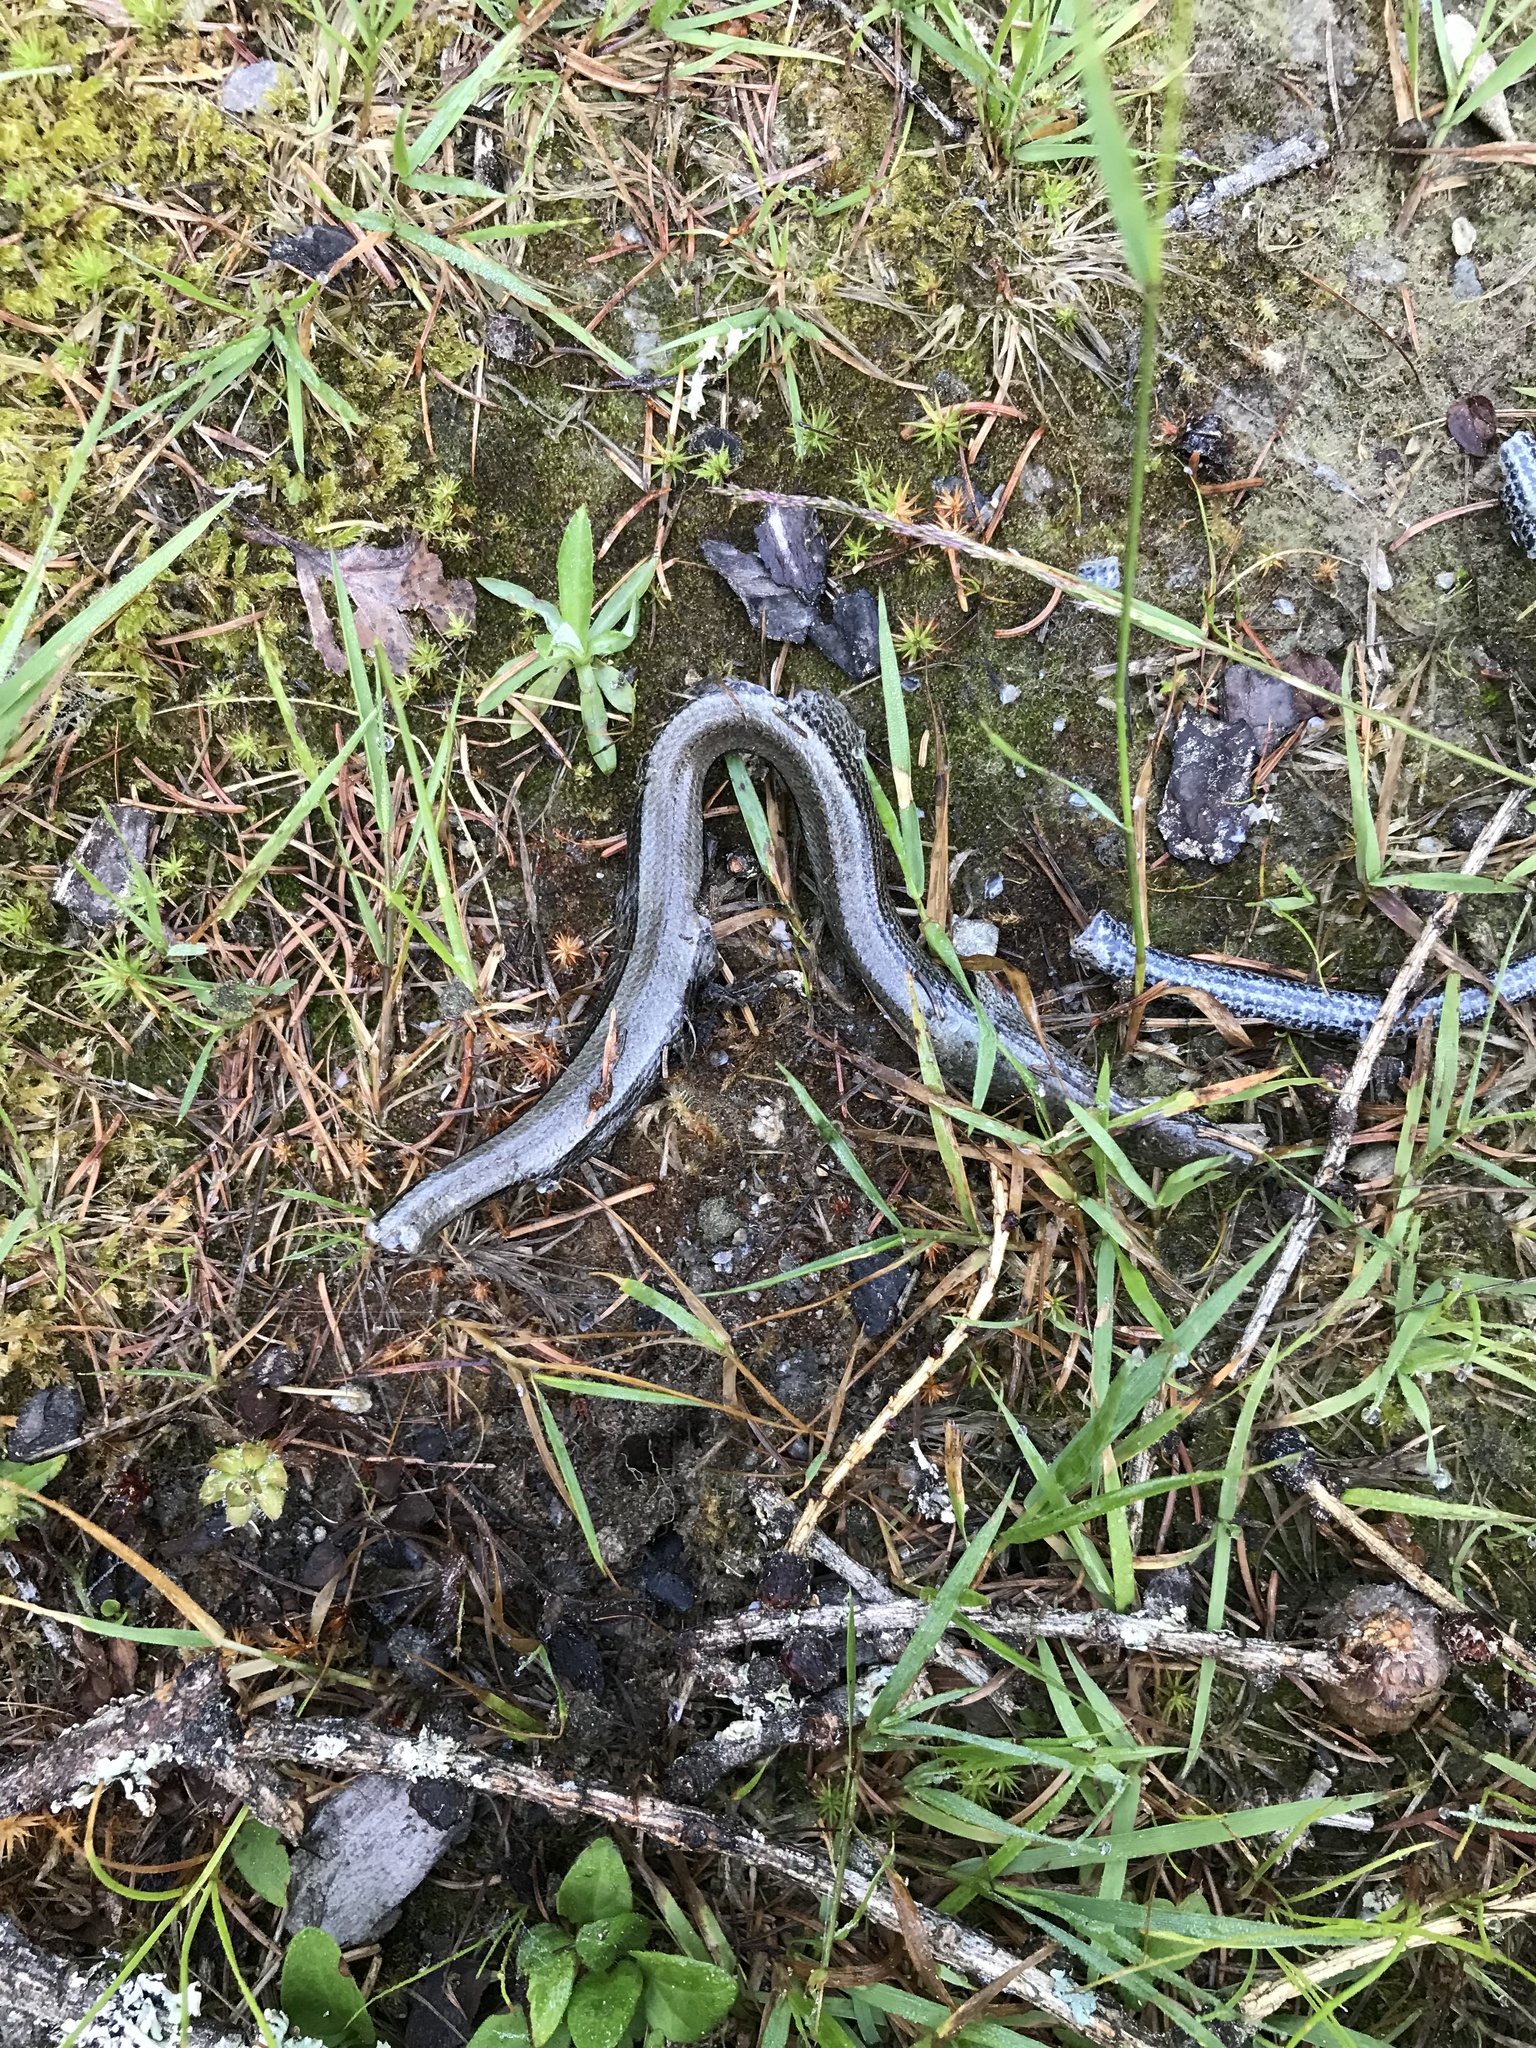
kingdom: Animalia
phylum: Chordata
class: Squamata
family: Anguidae
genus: Anguis
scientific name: Anguis fragilis
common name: Slow worm
